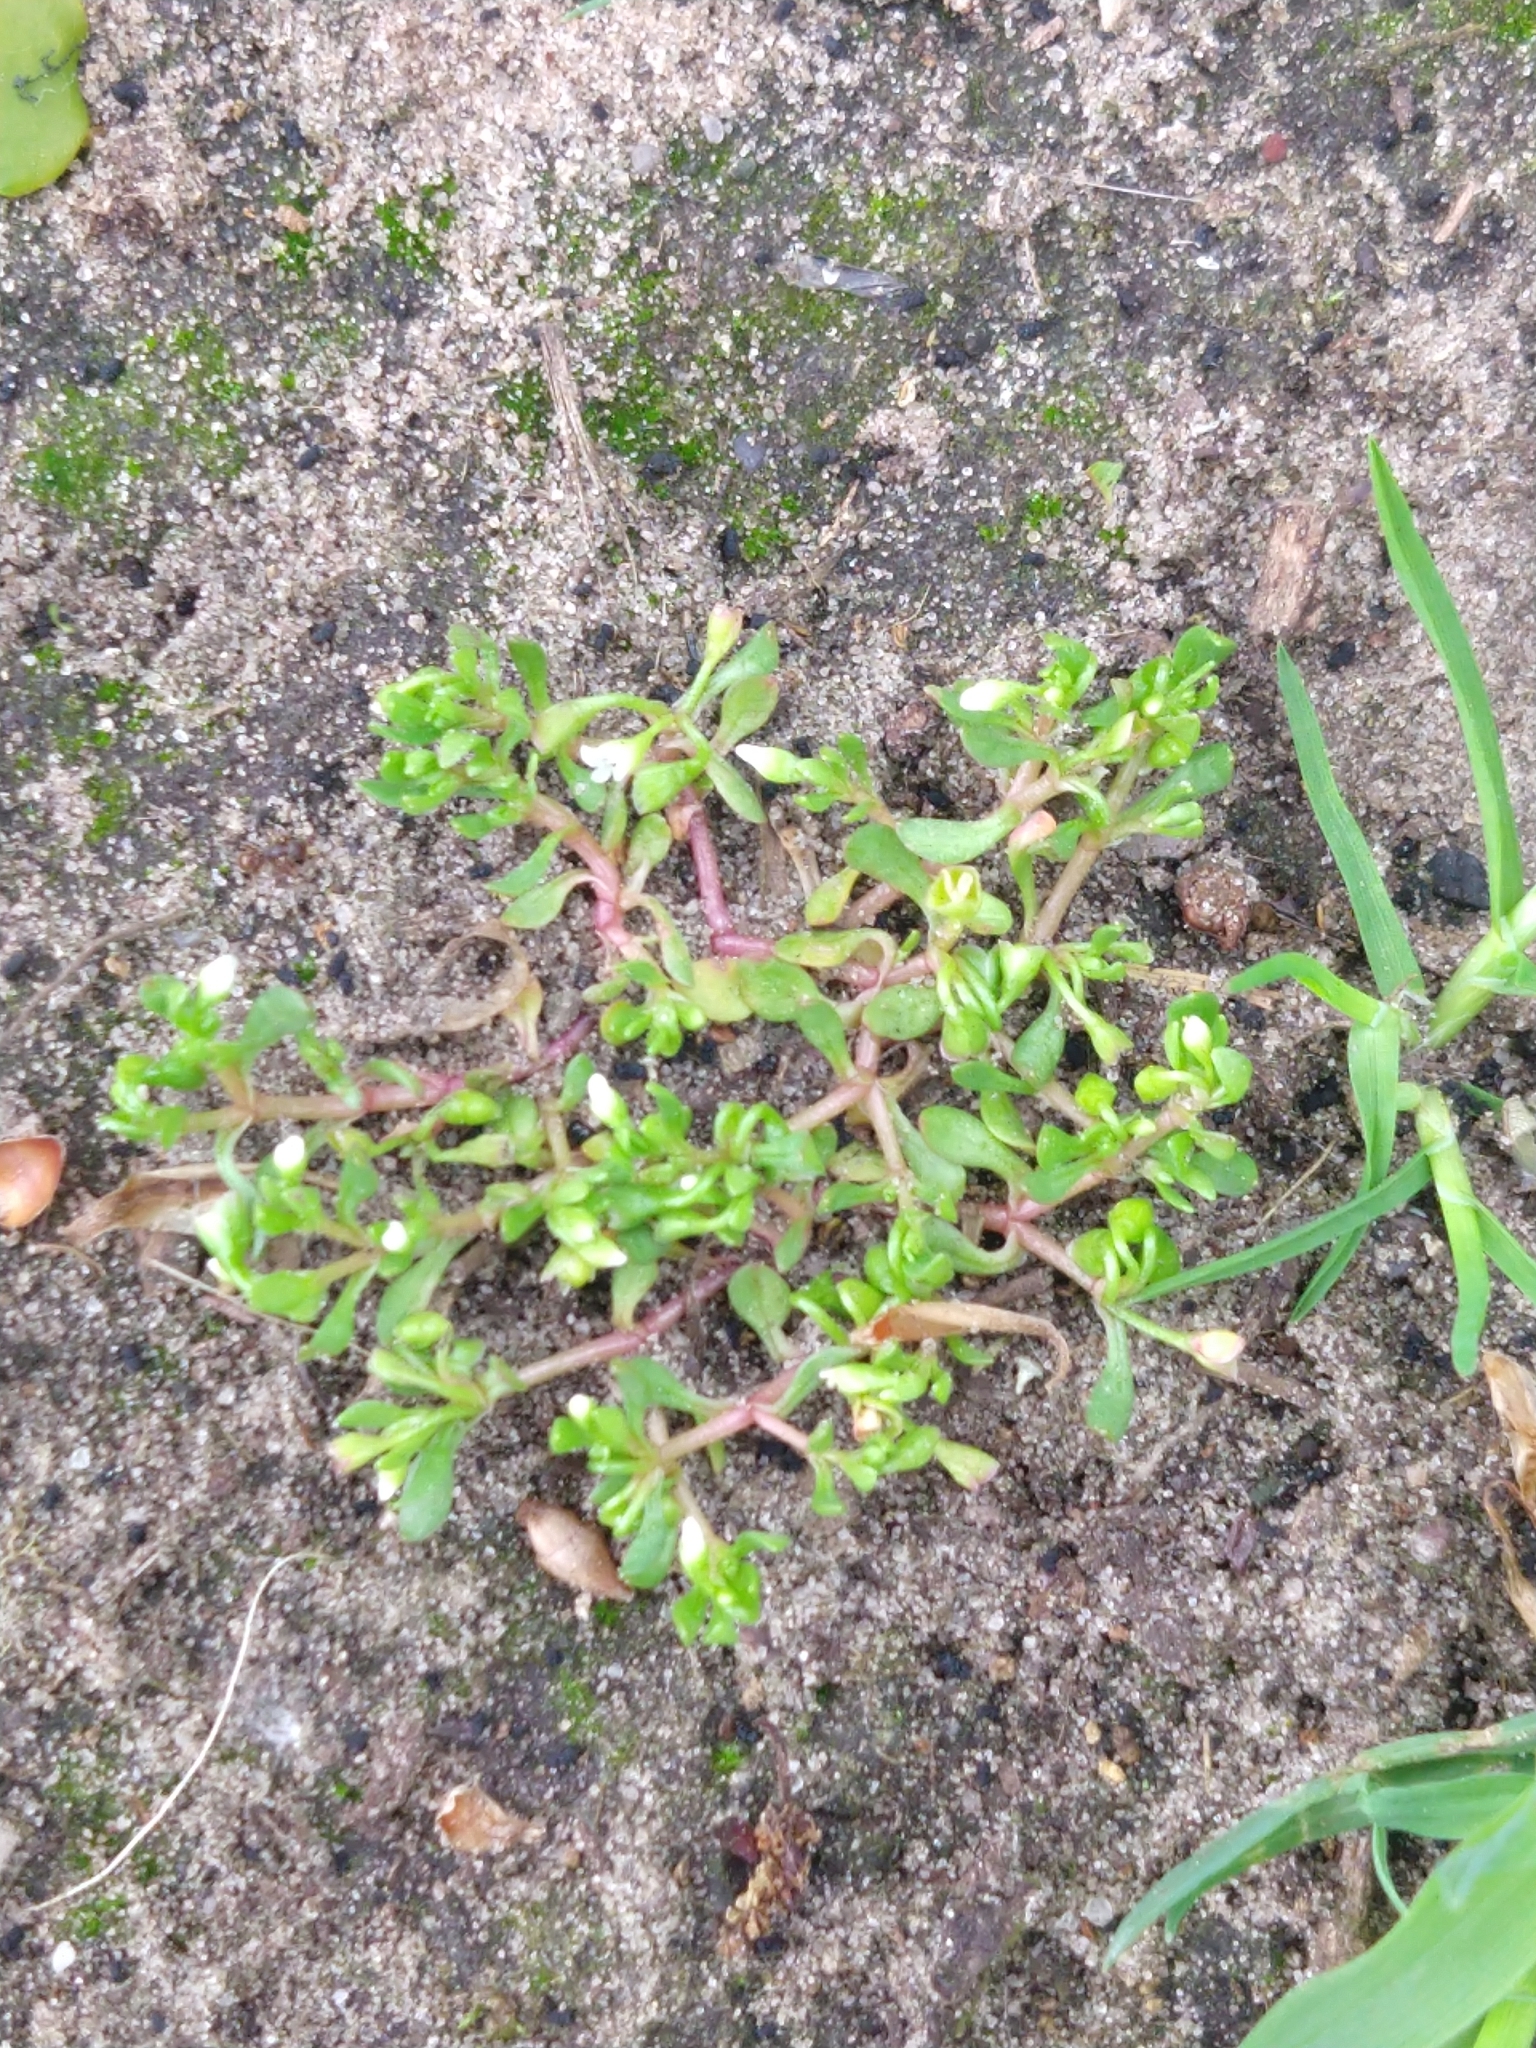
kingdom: Plantae
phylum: Tracheophyta
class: Magnoliopsida
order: Caryophyllales
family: Montiaceae
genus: Montia
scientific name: Montia fontana
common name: Blinks
